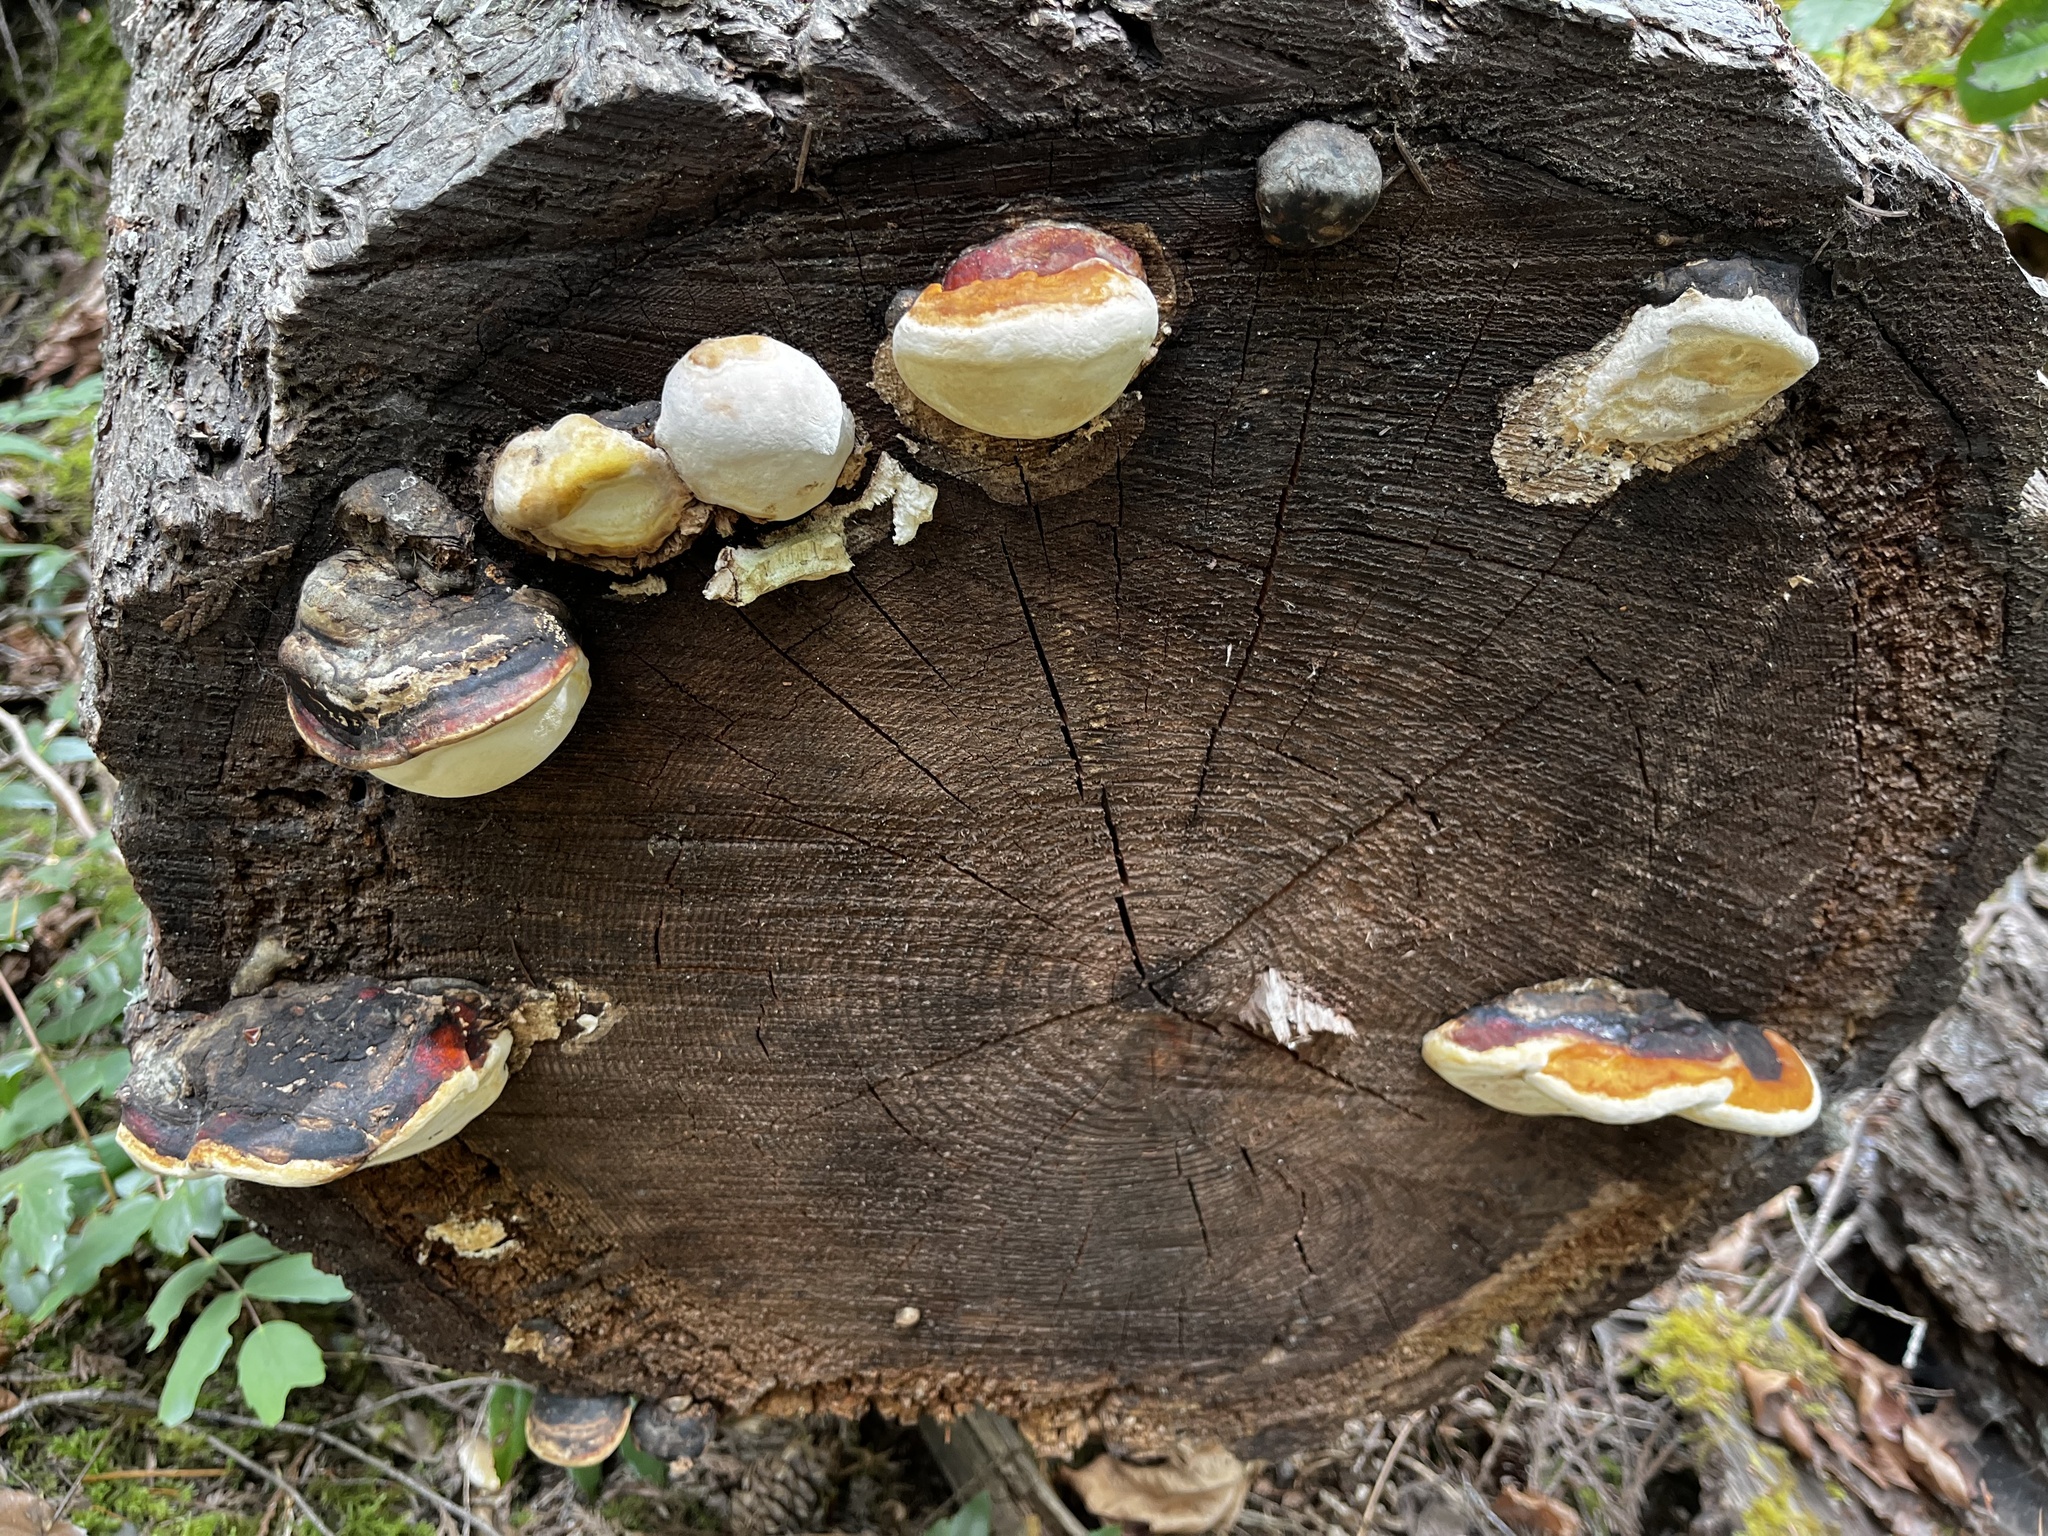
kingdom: Fungi
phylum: Basidiomycota
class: Agaricomycetes
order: Polyporales
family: Fomitopsidaceae
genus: Fomitopsis
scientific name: Fomitopsis mounceae
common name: Northern red belt
